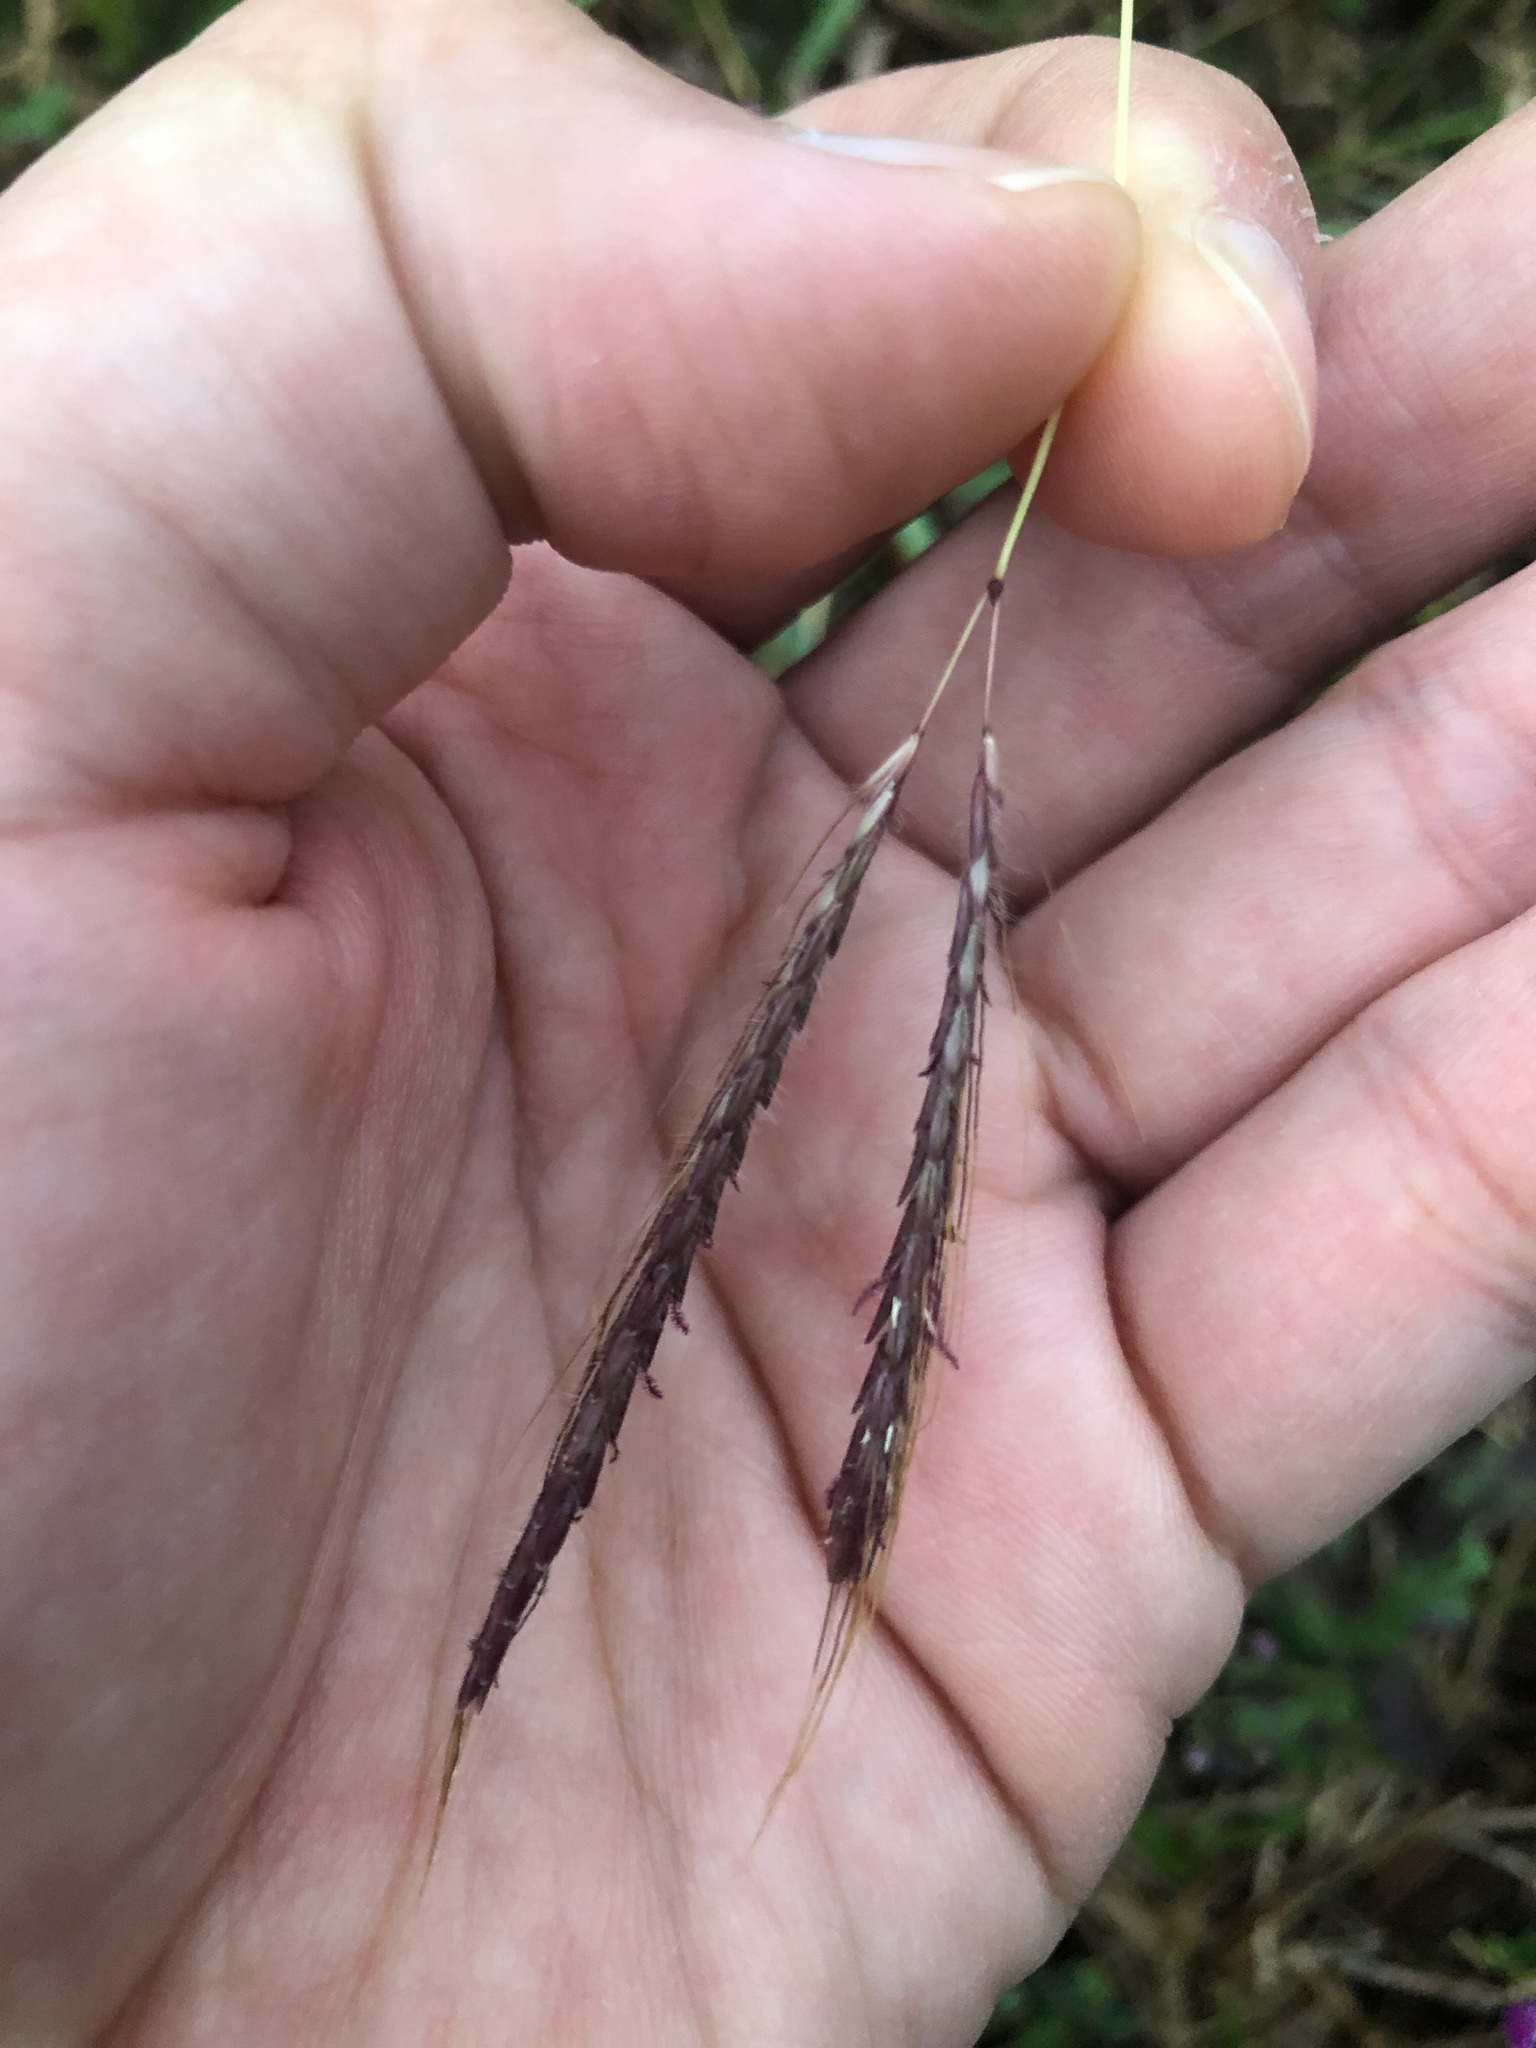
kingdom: Plantae
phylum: Tracheophyta
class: Liliopsida
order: Poales
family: Poaceae
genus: Dichanthium
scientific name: Dichanthium annulatum
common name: Kleberg's bluestem
